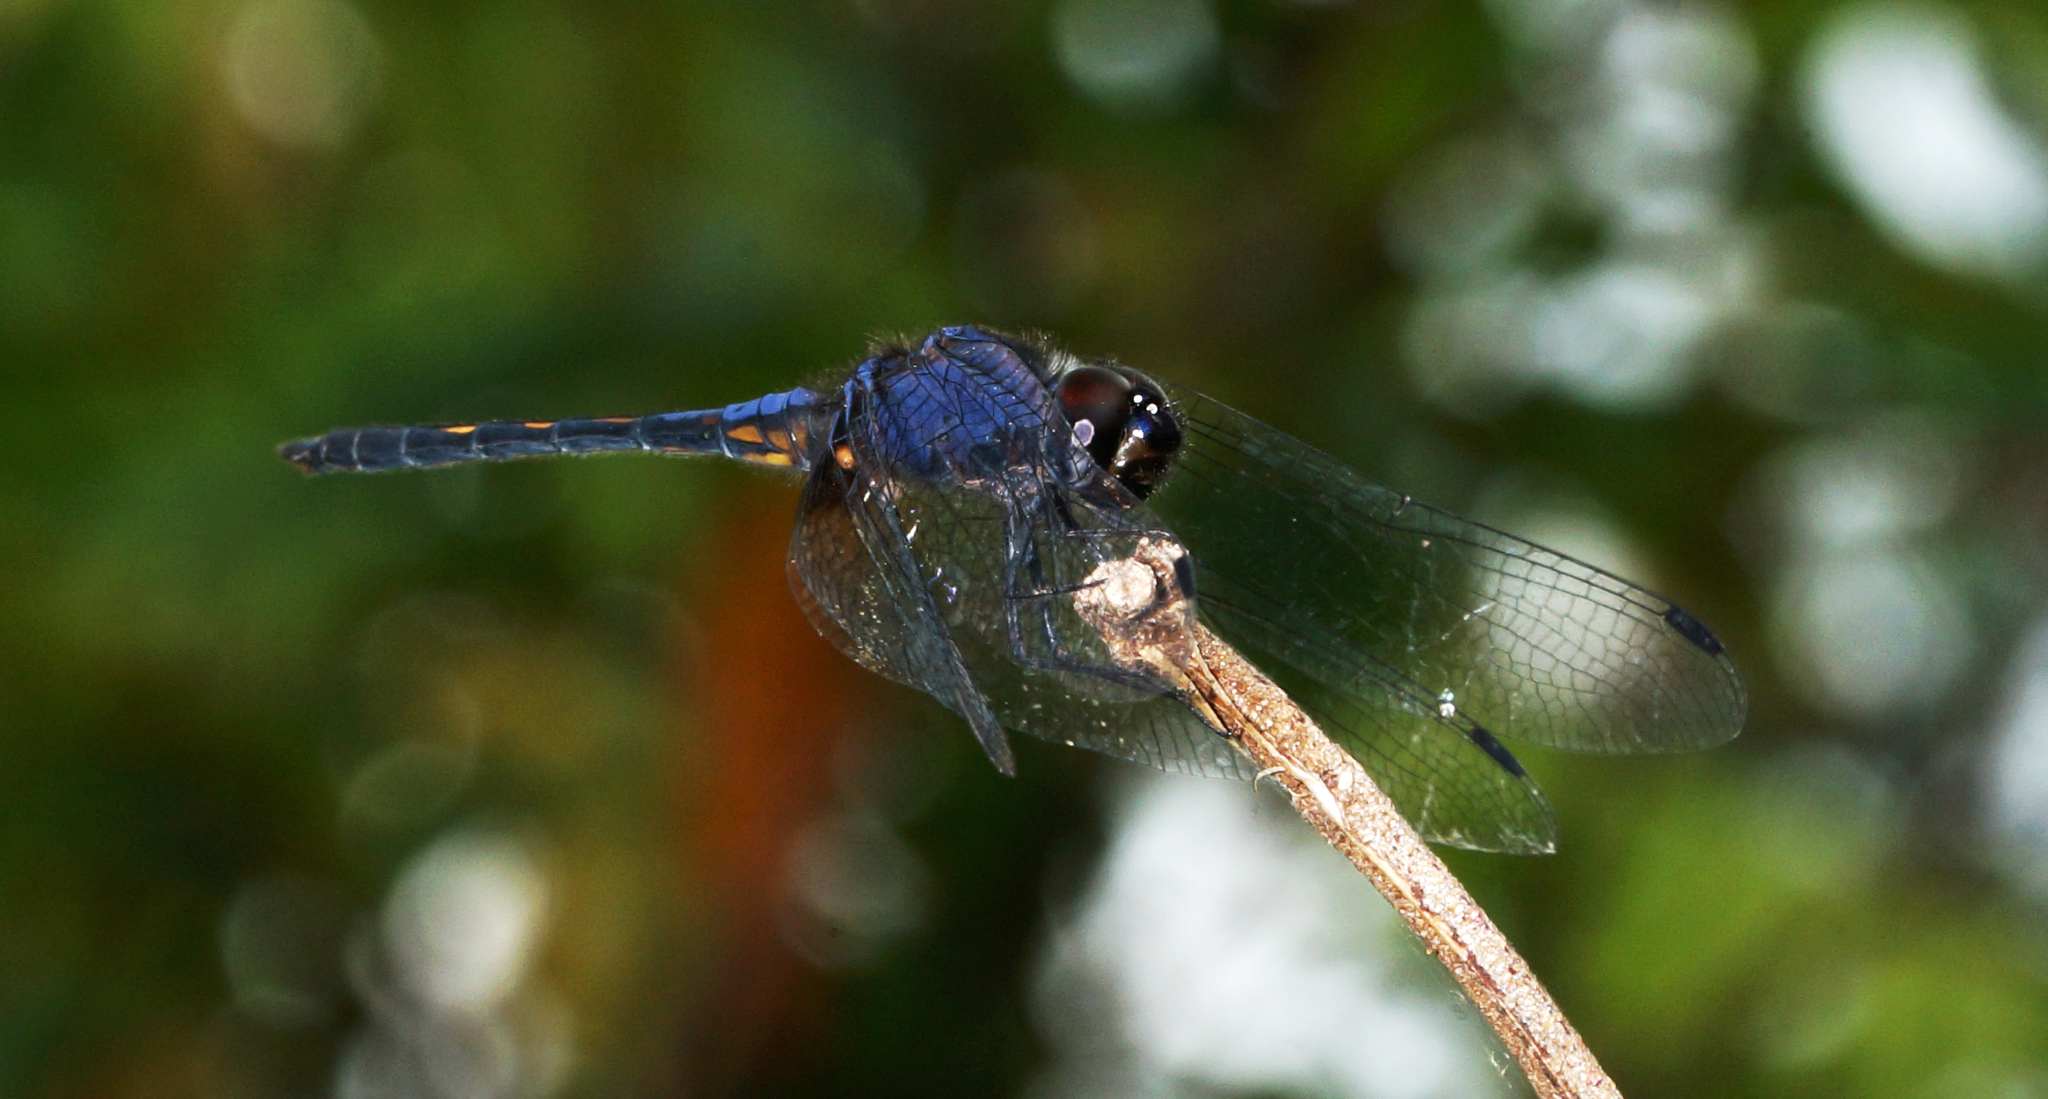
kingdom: Animalia
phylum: Arthropoda
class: Insecta
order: Odonata
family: Libellulidae
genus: Trithemis
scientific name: Trithemis festiva
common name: Indigo dropwing
